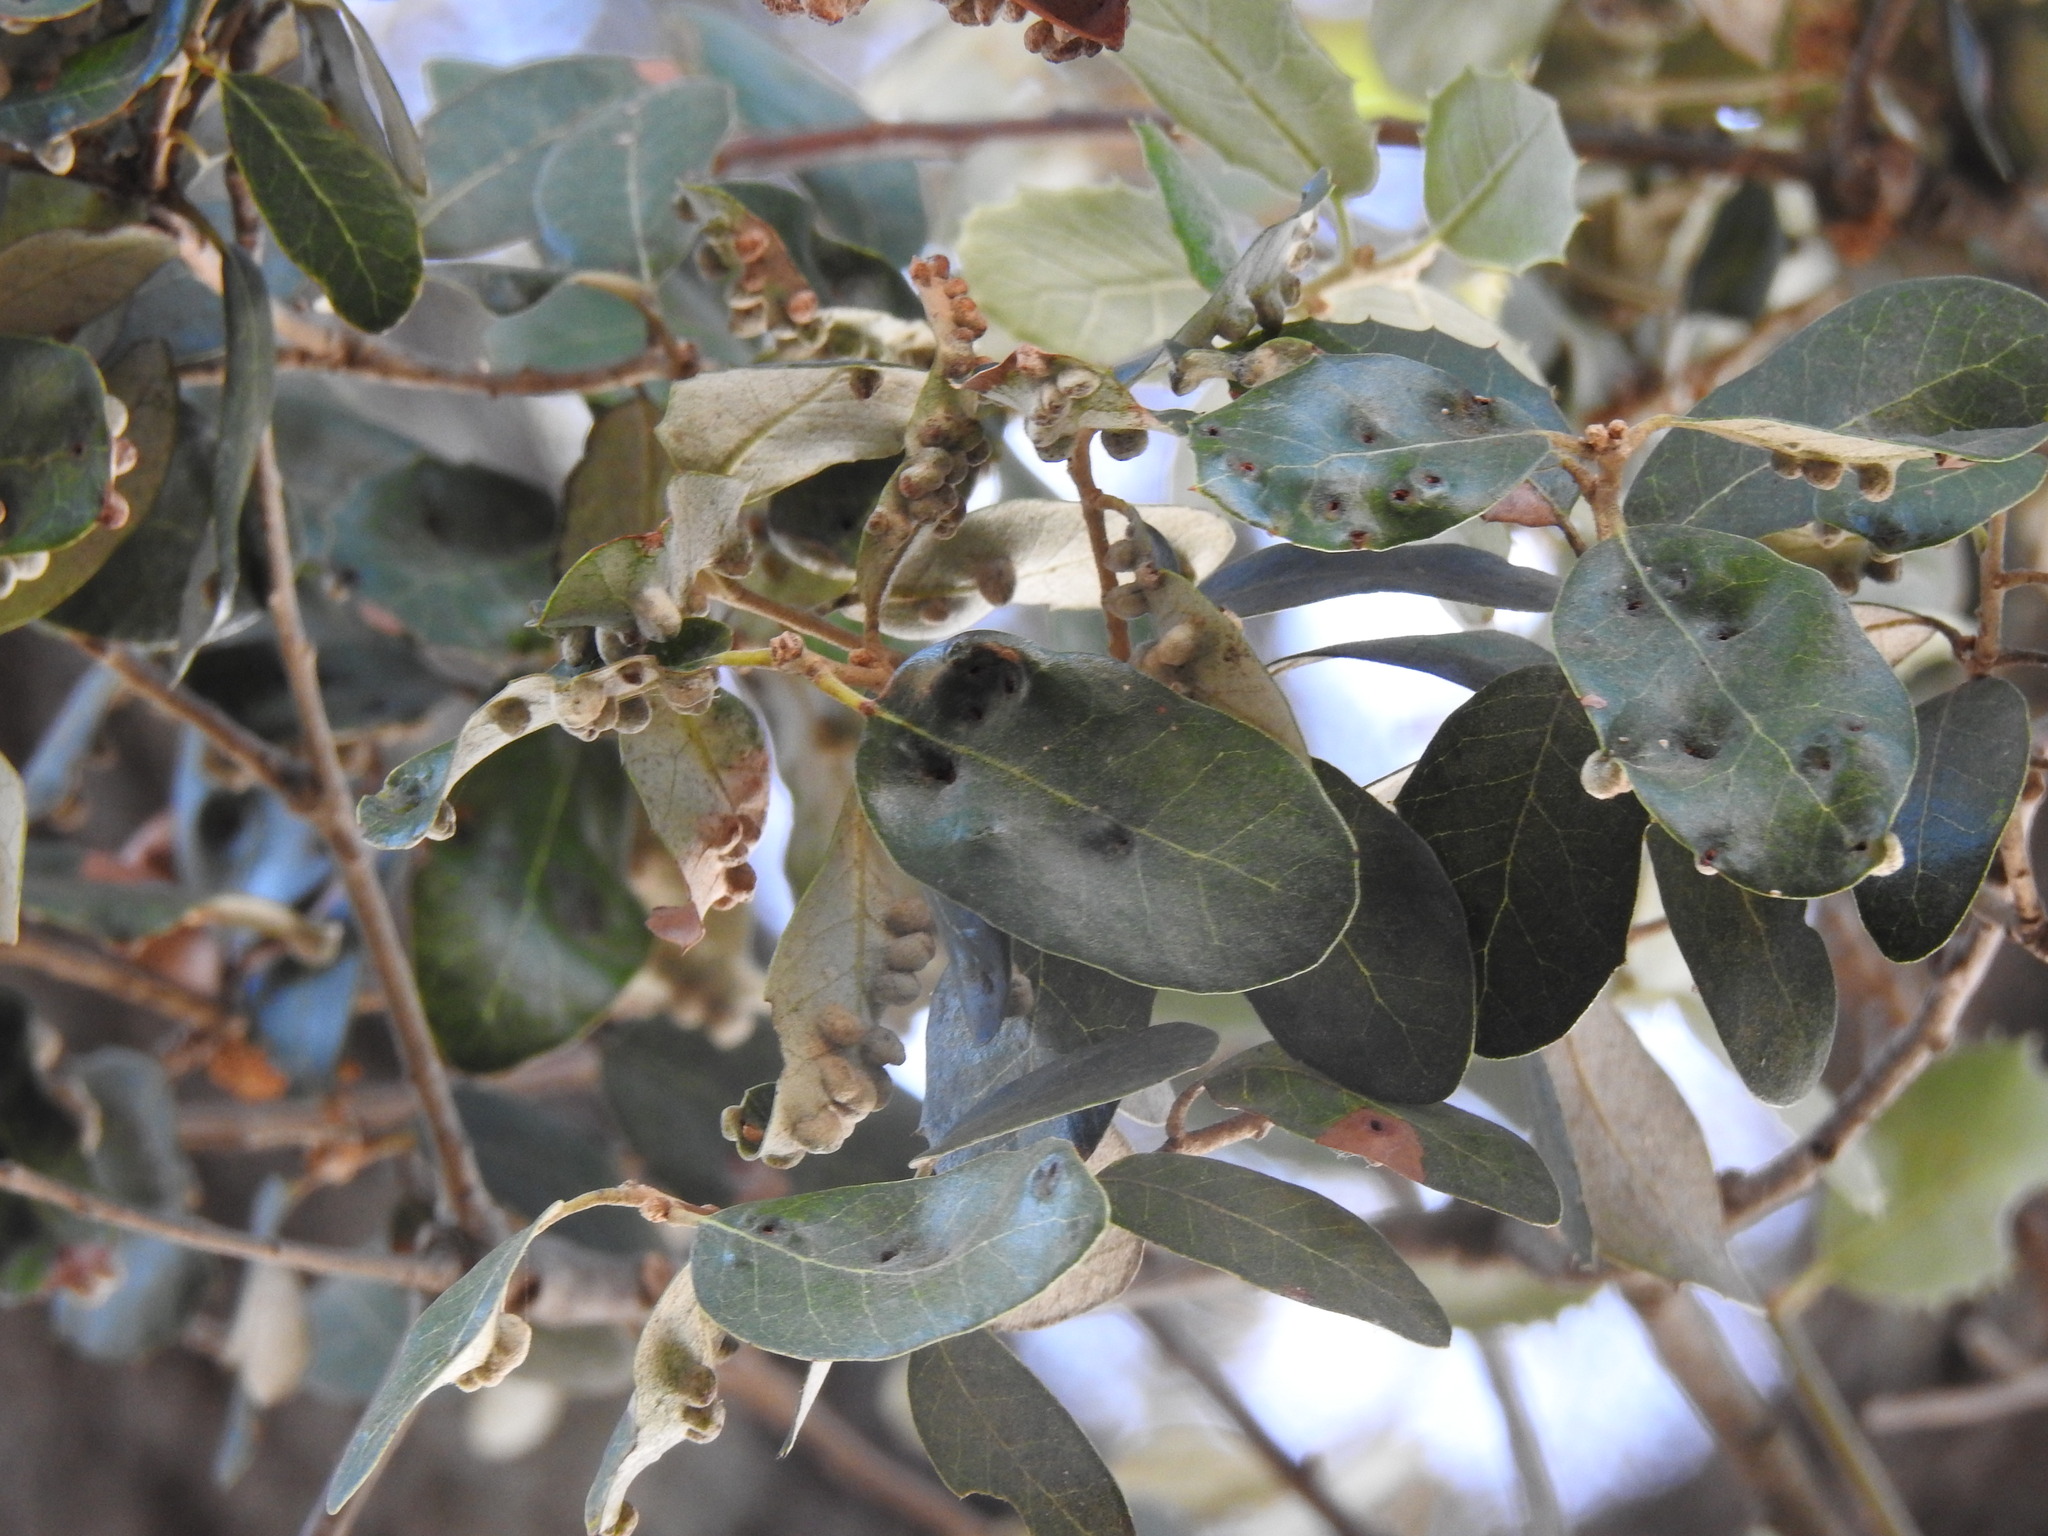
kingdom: Animalia
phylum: Arthropoda
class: Insecta
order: Diptera
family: Cecidomyiidae
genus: Dryomyia
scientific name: Dryomyia lichtensteinii
